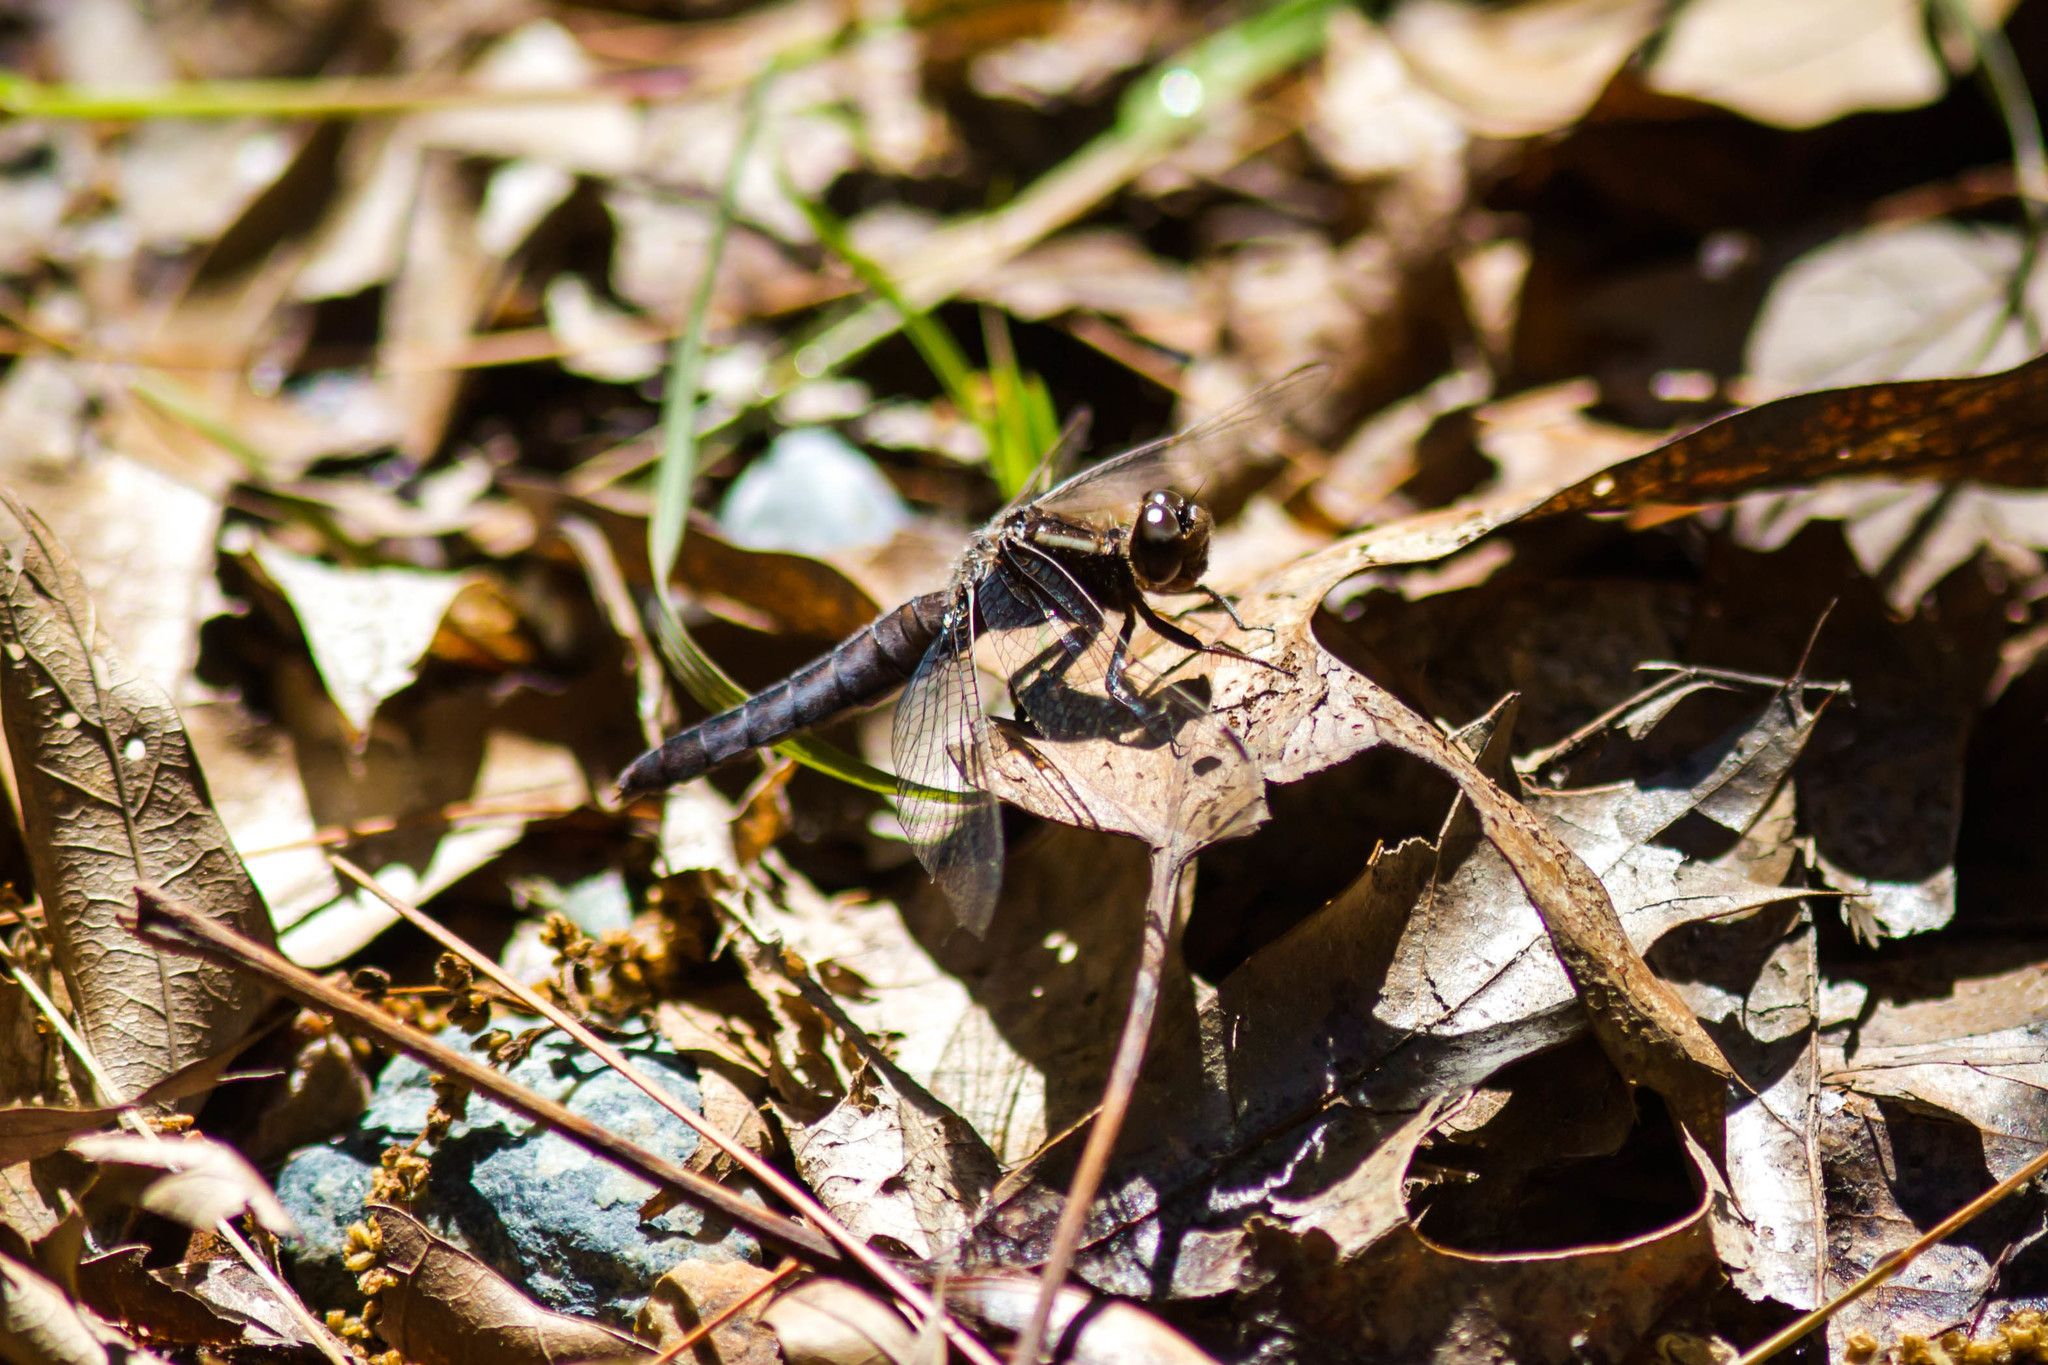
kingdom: Animalia
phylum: Arthropoda
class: Insecta
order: Odonata
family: Libellulidae
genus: Ladona
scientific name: Ladona exusta
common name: Libellule embrasée
